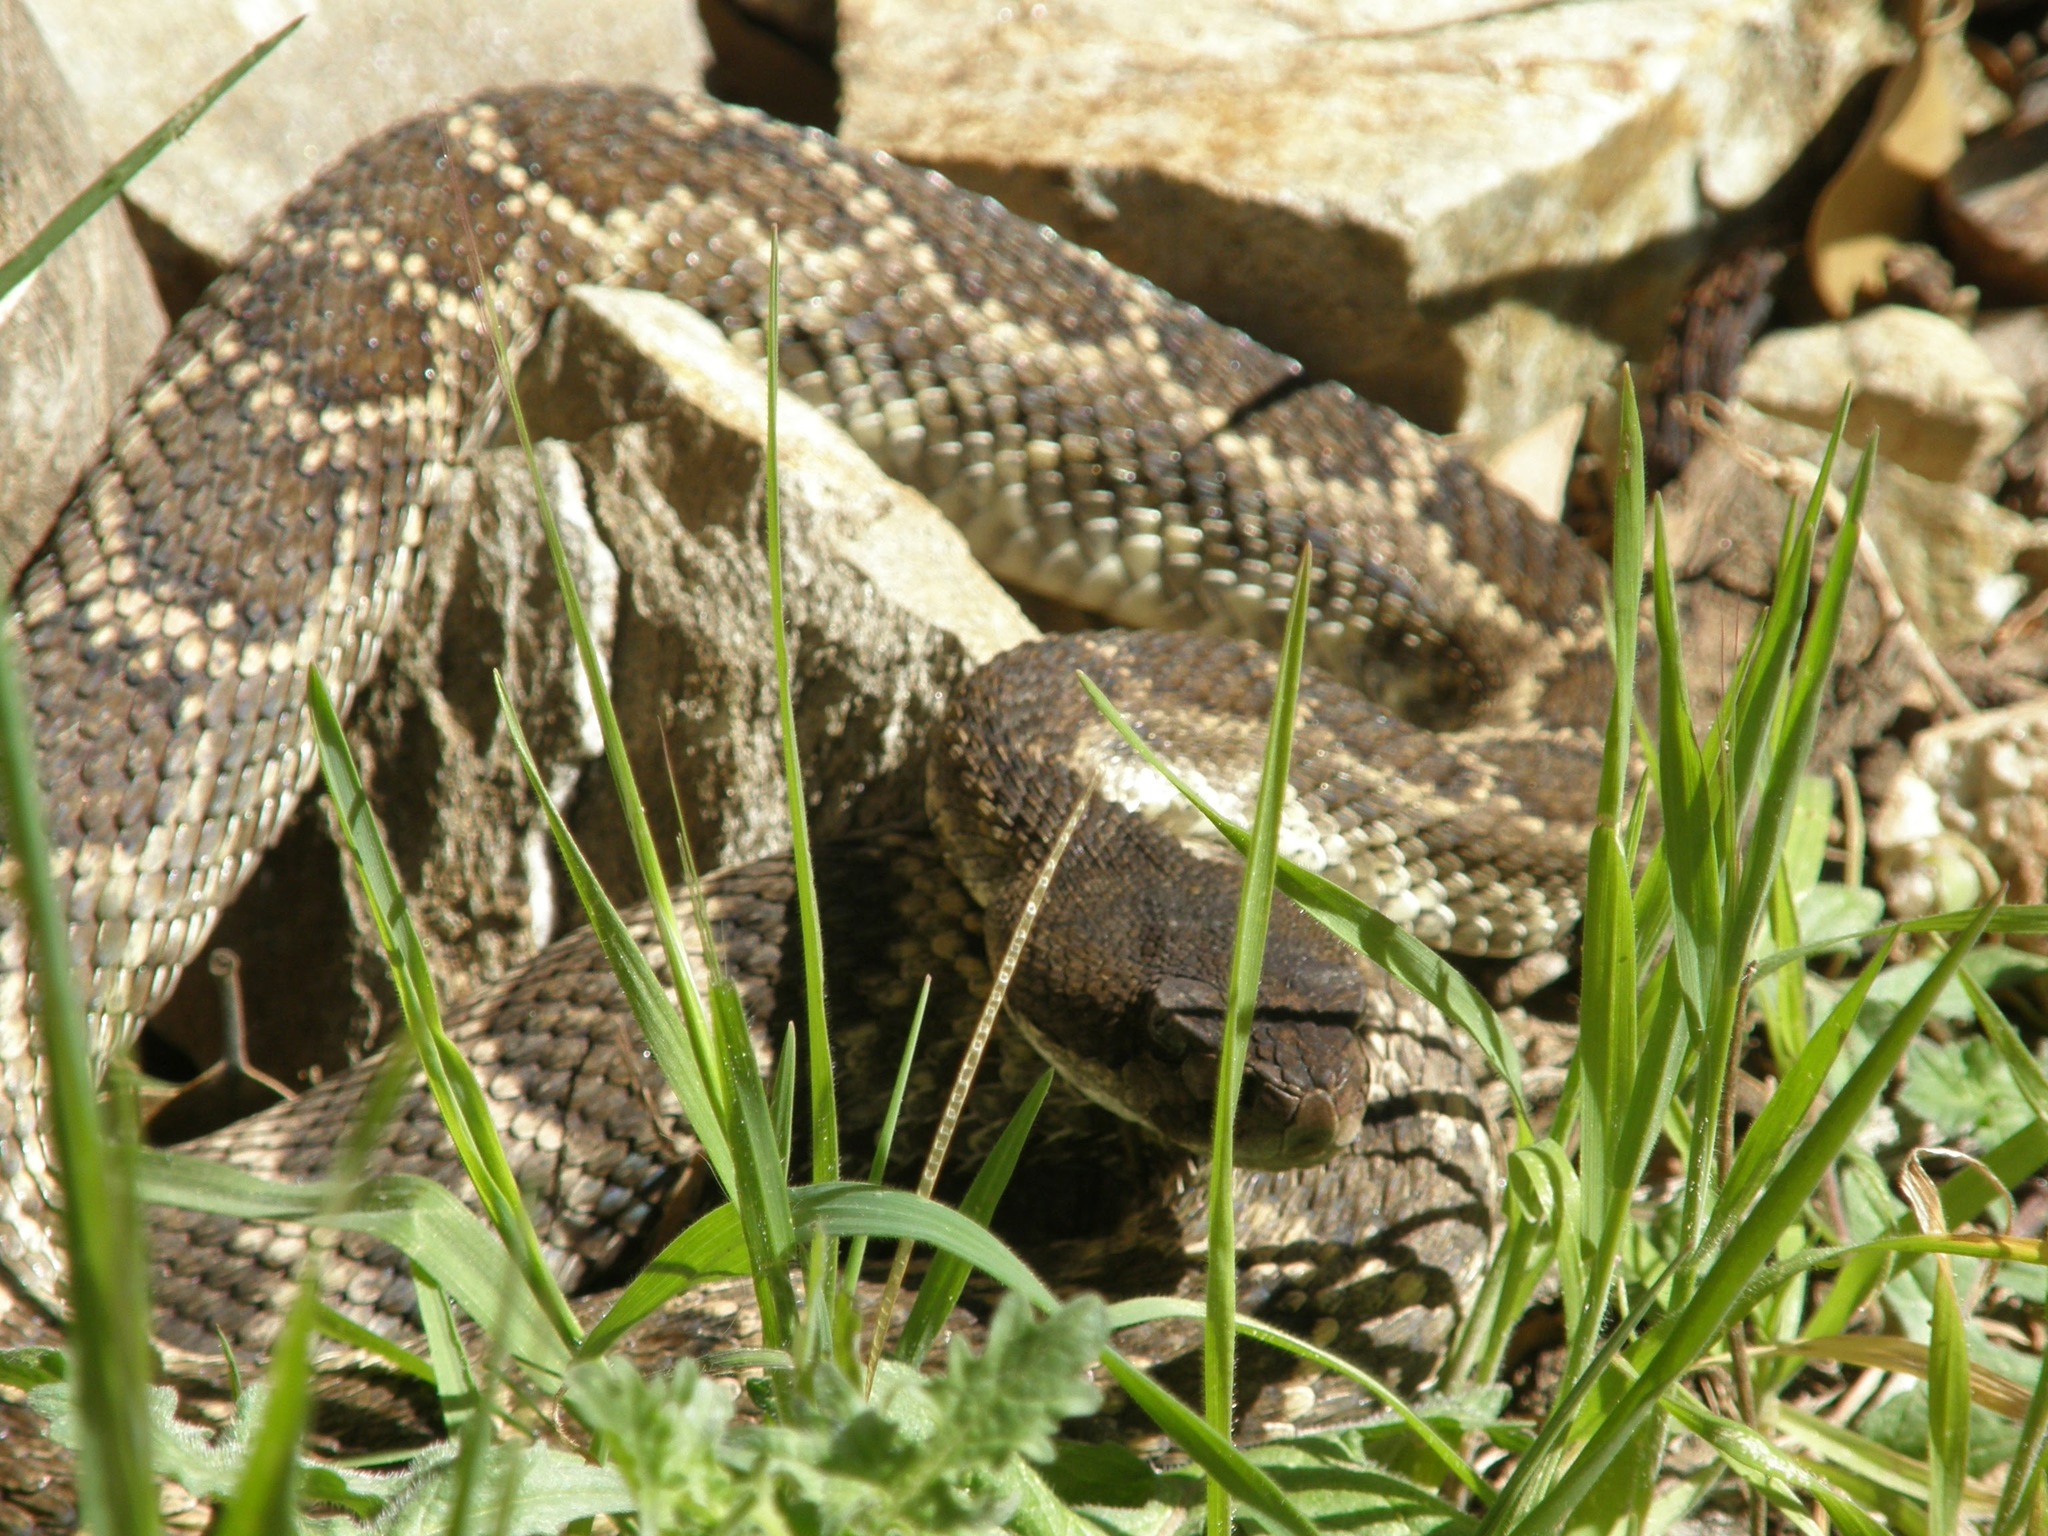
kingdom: Animalia
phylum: Chordata
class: Squamata
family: Viperidae
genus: Crotalus
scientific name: Crotalus oreganus
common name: Abyssus
